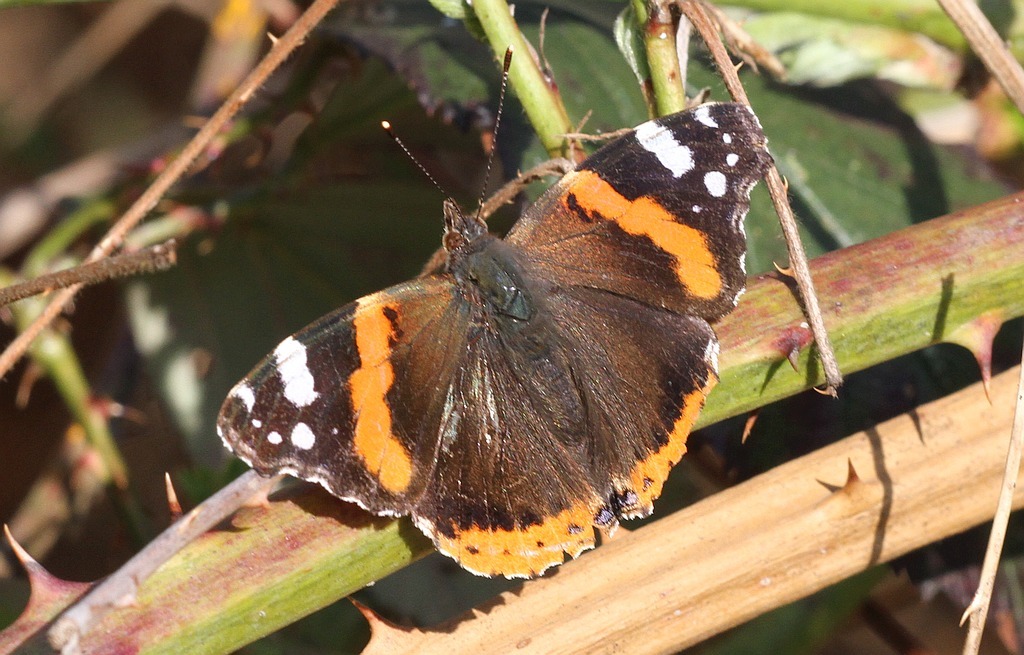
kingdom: Animalia
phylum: Arthropoda
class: Insecta
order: Lepidoptera
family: Nymphalidae
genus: Vanessa
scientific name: Vanessa atalanta
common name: Red admiral
